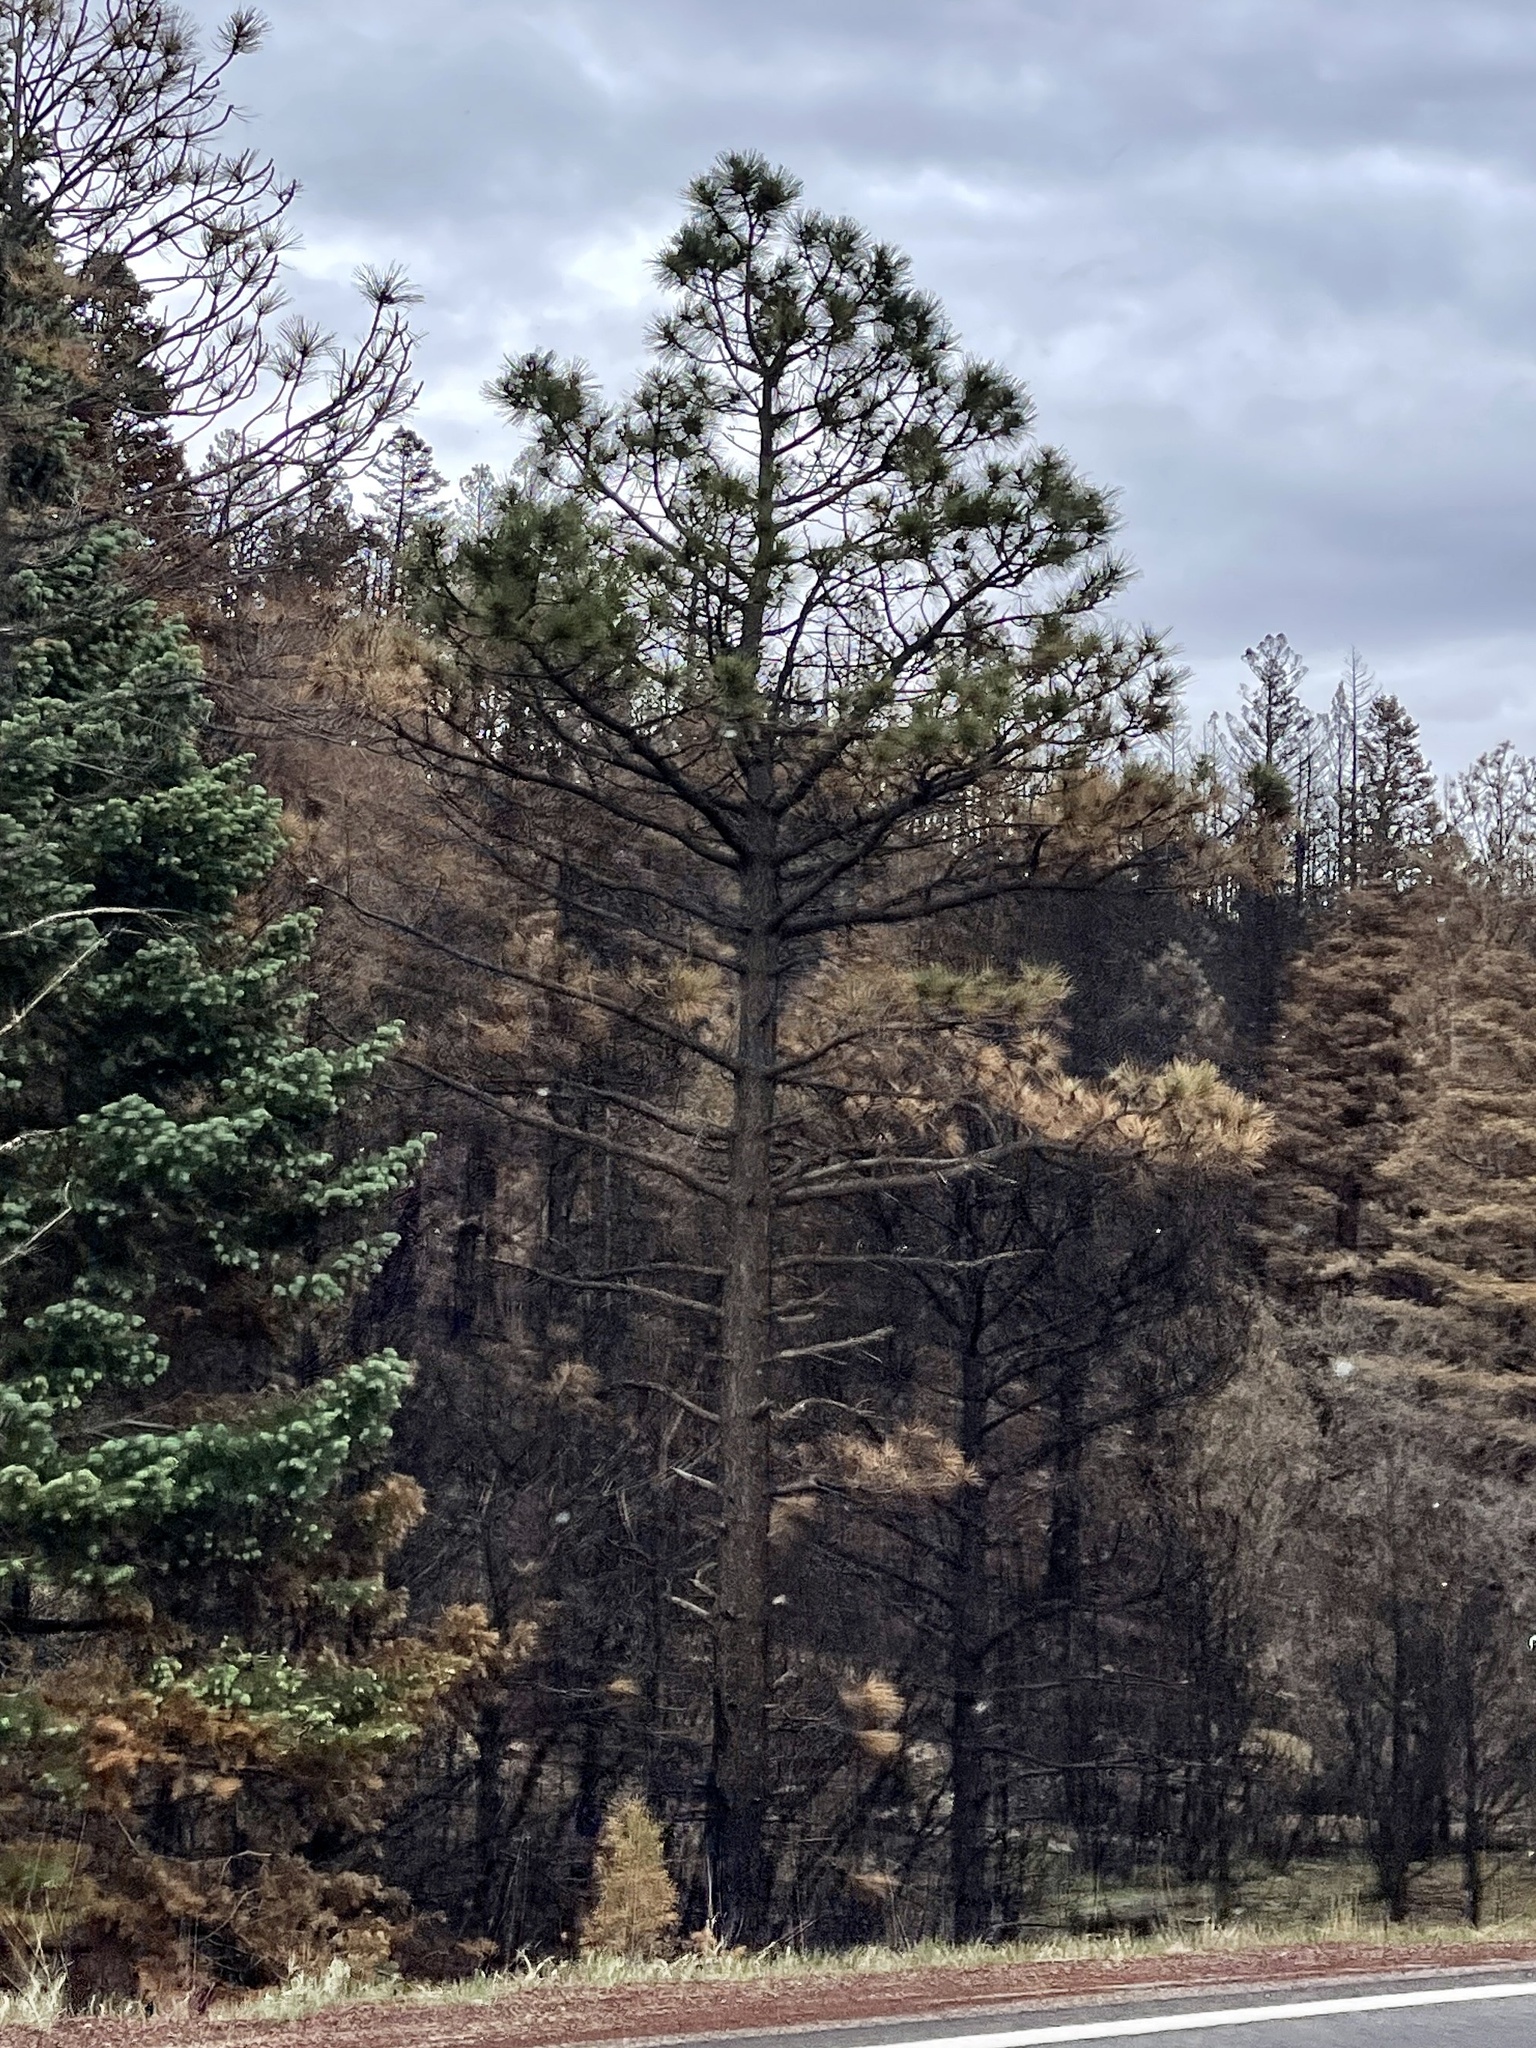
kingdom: Plantae
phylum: Tracheophyta
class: Pinopsida
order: Pinales
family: Pinaceae
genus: Pinus
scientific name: Pinus ponderosa
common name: Western yellow-pine
